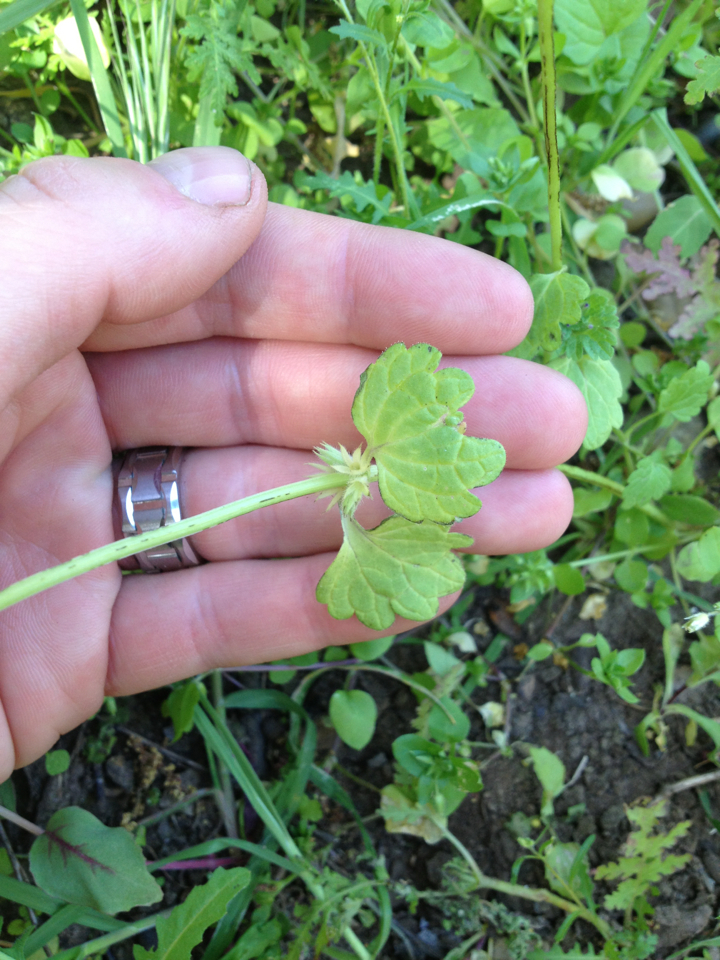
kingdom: Plantae
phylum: Tracheophyta
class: Magnoliopsida
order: Lamiales
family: Lamiaceae
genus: Lamium
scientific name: Lamium amplexicaule
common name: Henbit dead-nettle
